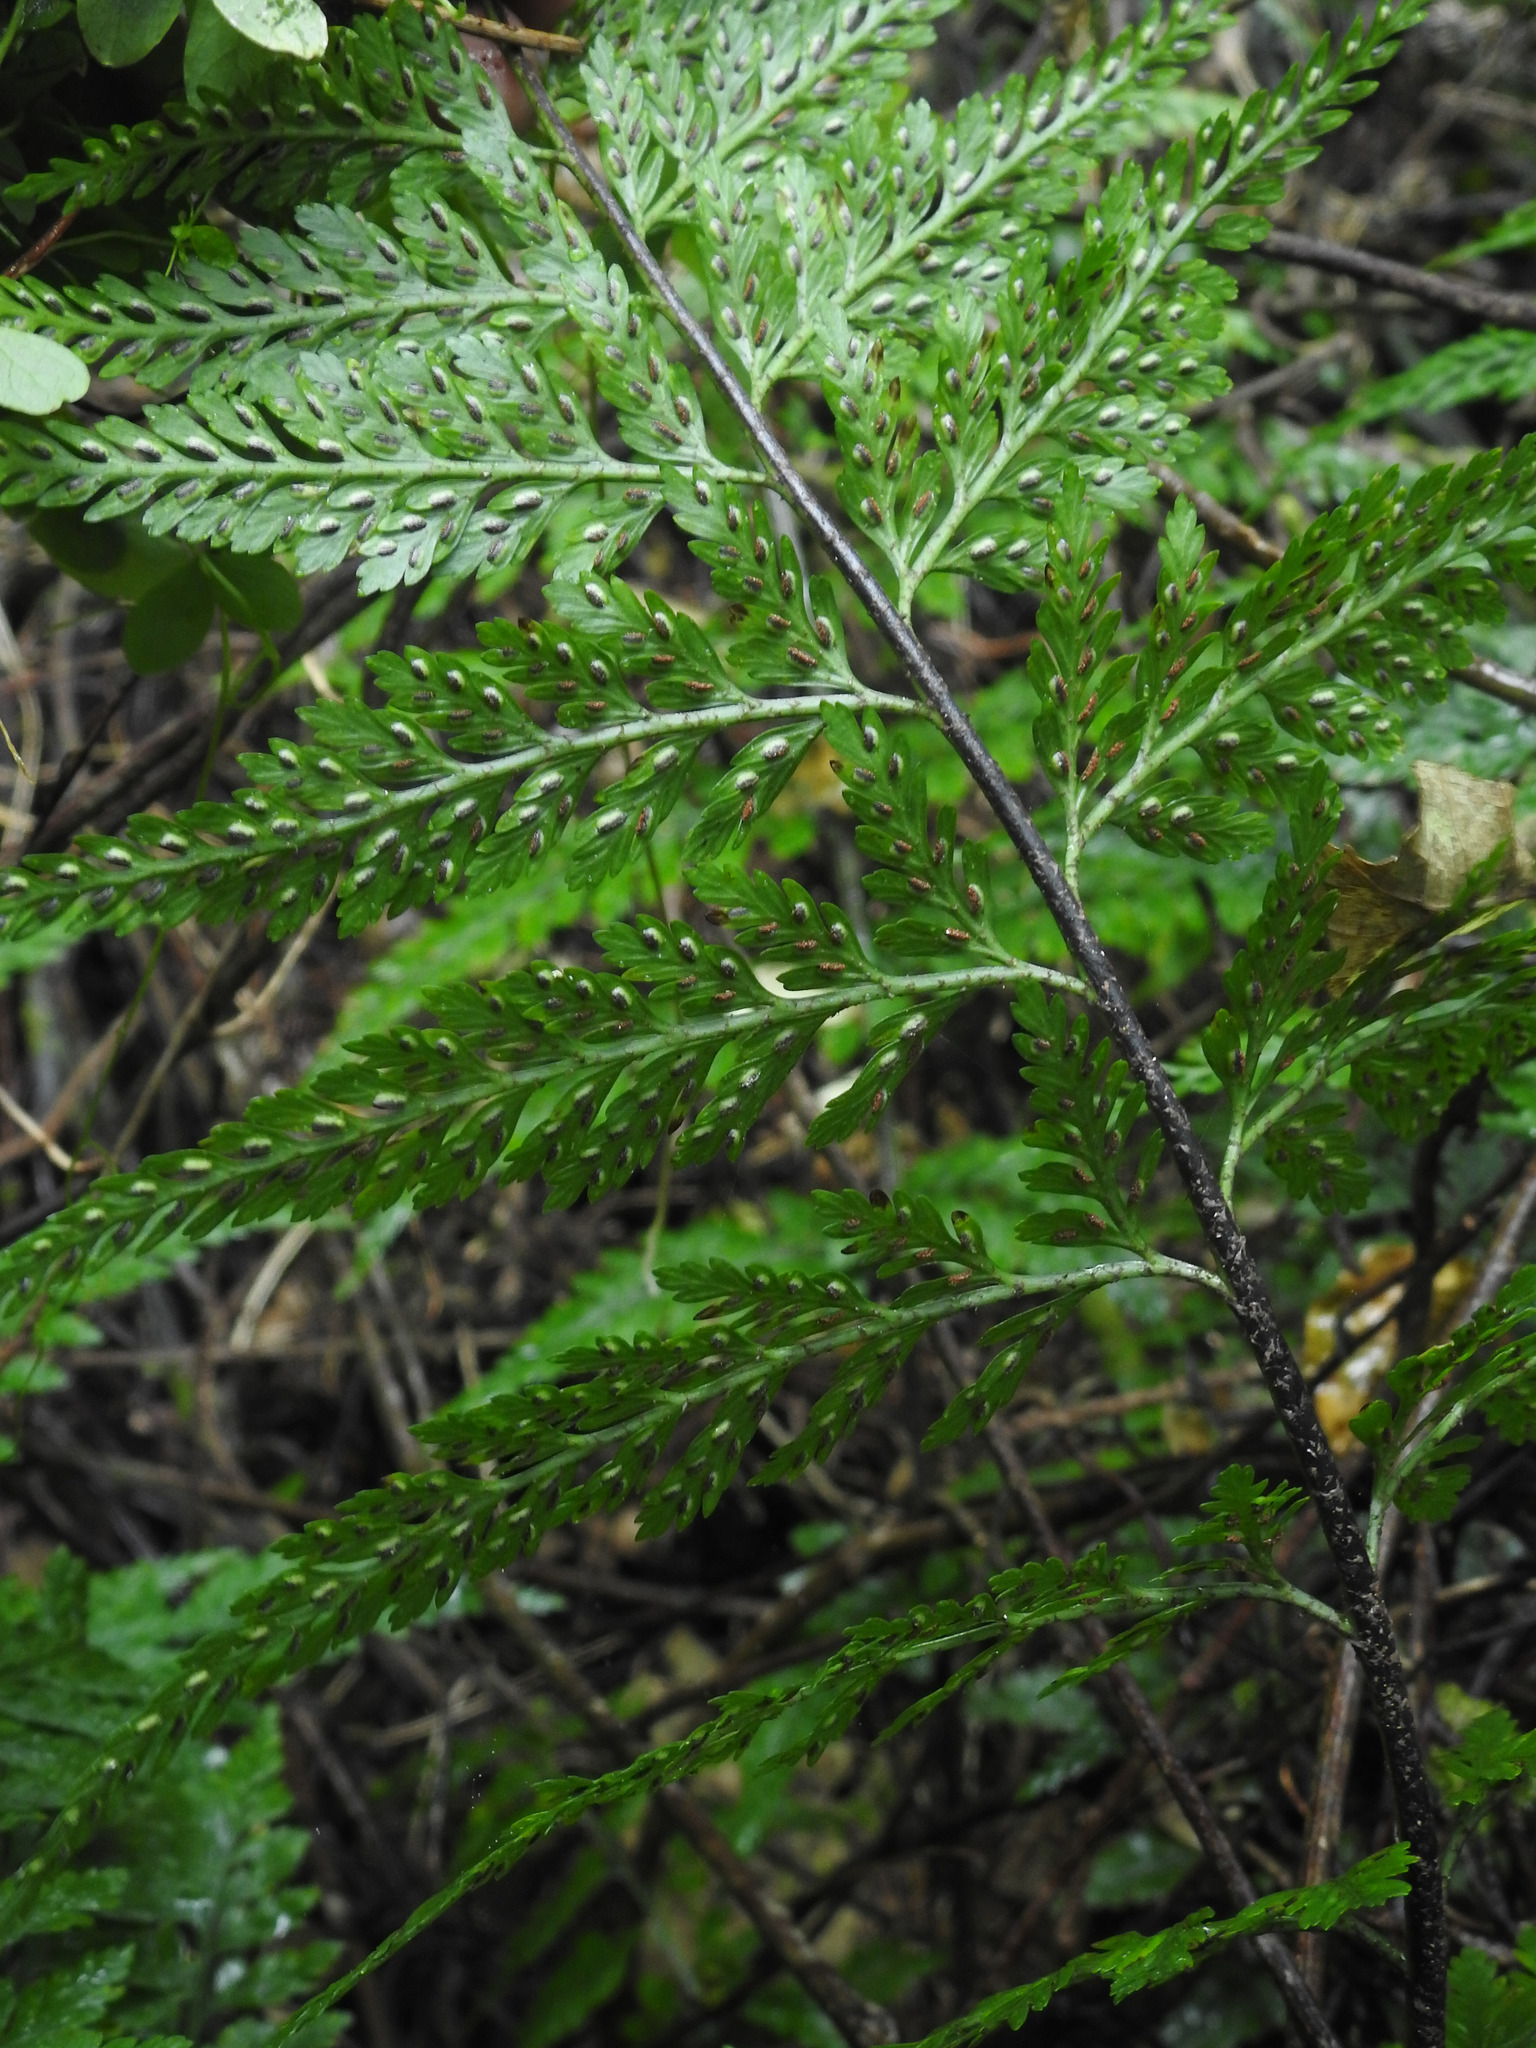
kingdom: Plantae
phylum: Tracheophyta
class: Polypodiopsida
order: Polypodiales
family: Aspleniaceae
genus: Asplenium
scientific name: Asplenium
